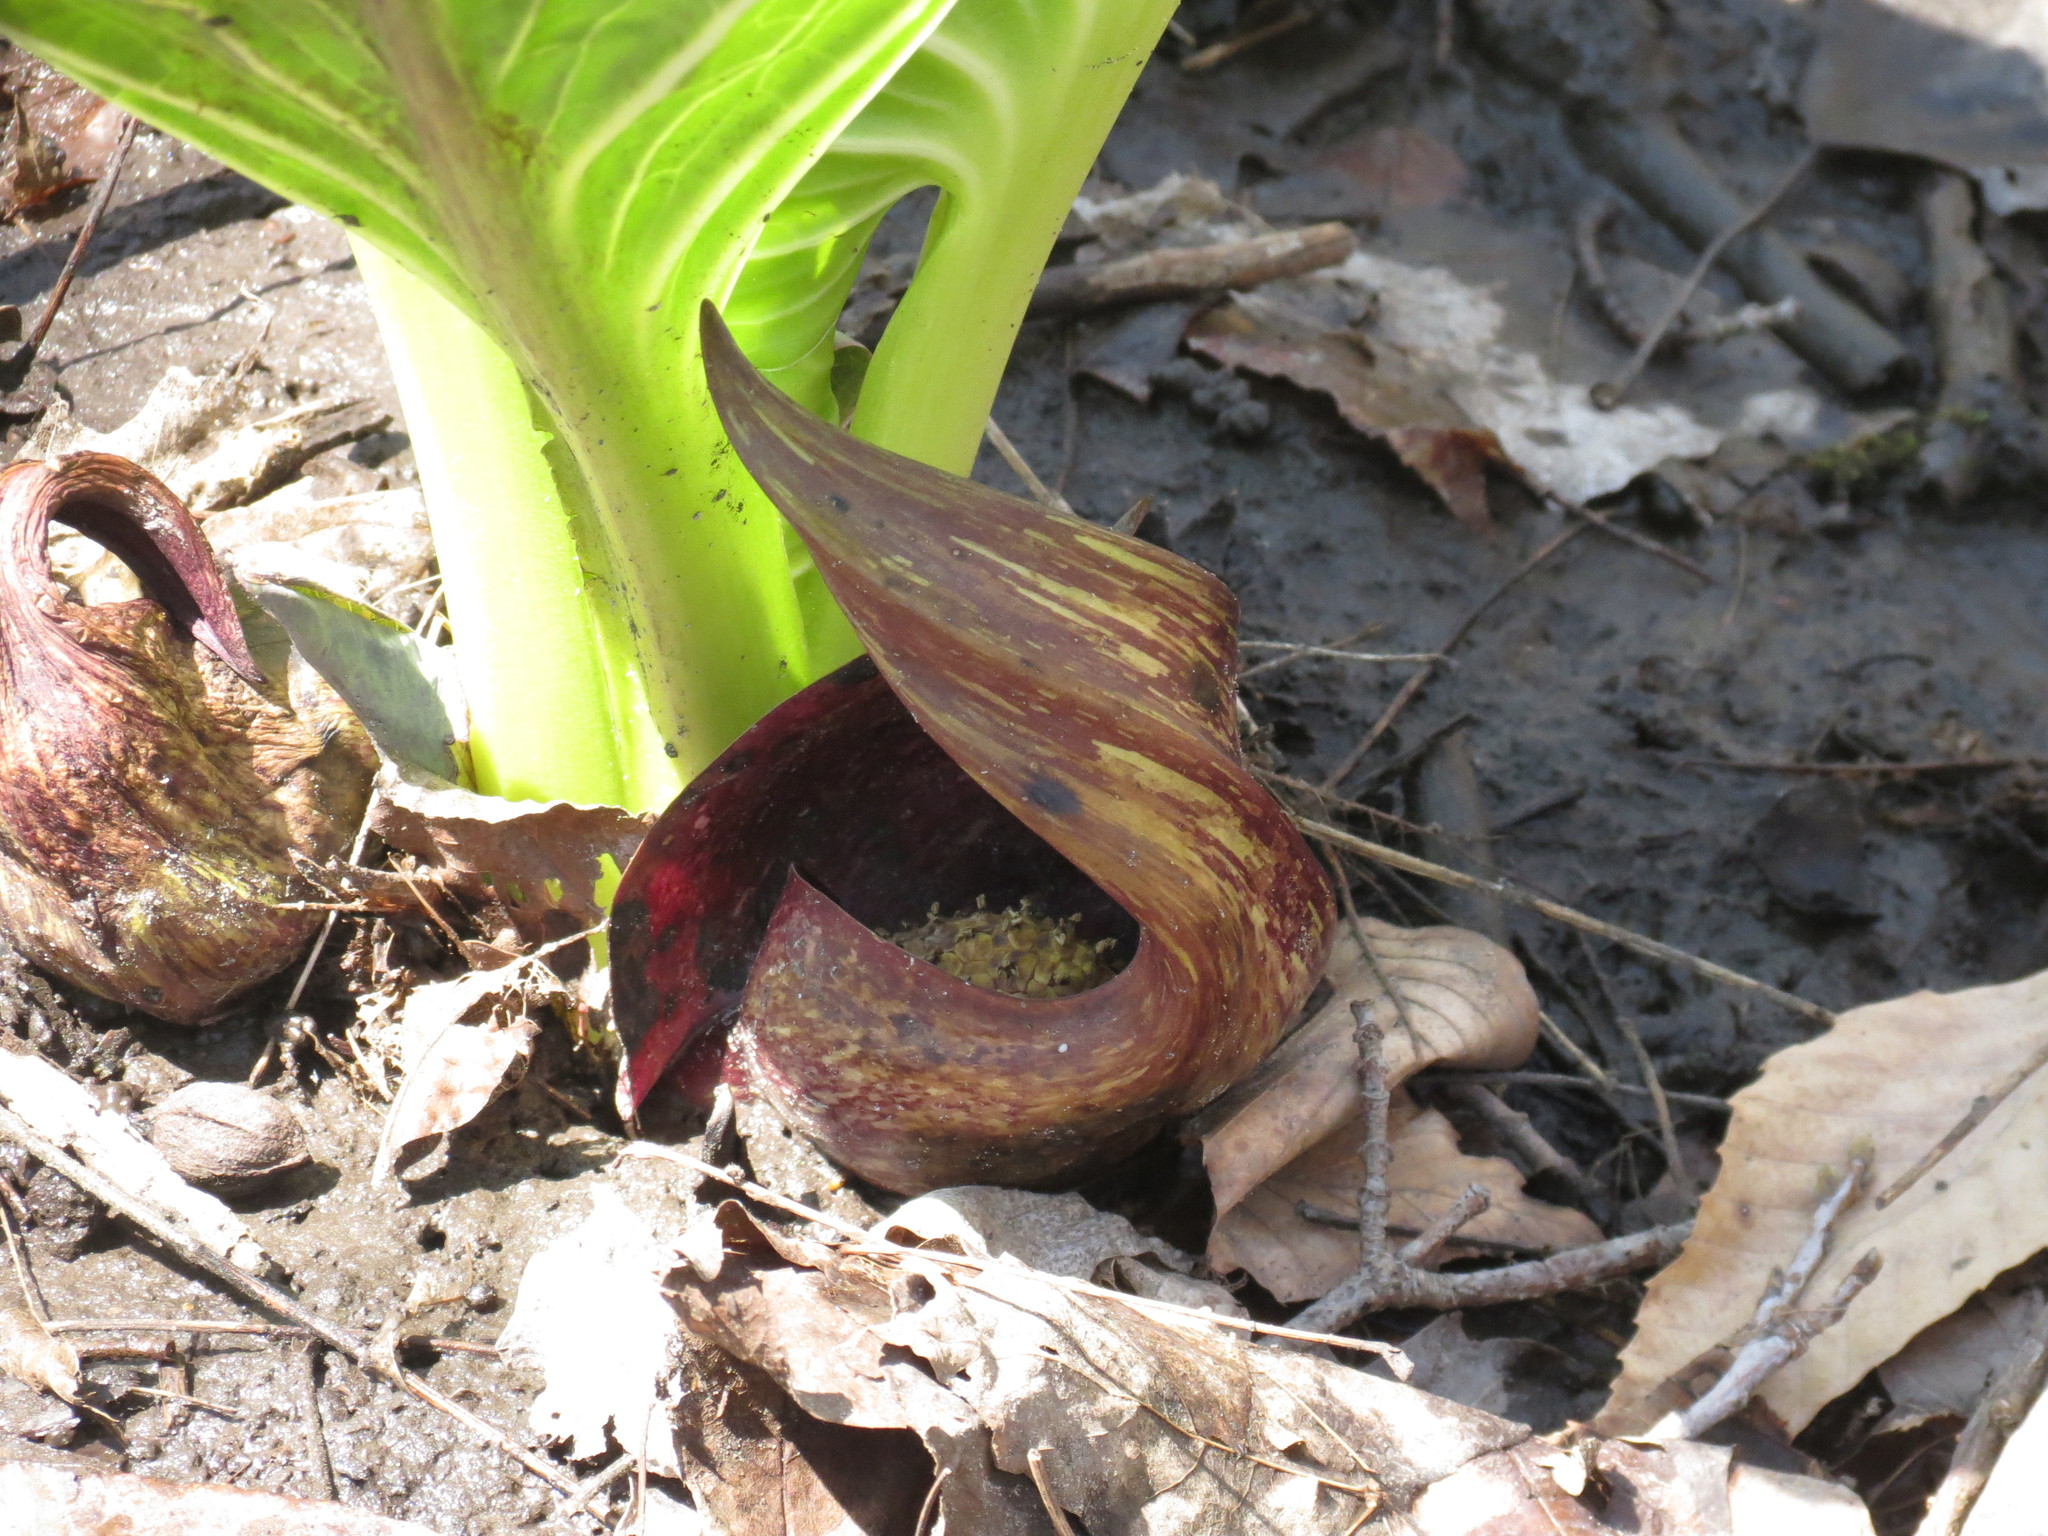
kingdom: Plantae
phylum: Tracheophyta
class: Liliopsida
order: Alismatales
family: Araceae
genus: Symplocarpus
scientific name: Symplocarpus foetidus
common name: Eastern skunk cabbage
